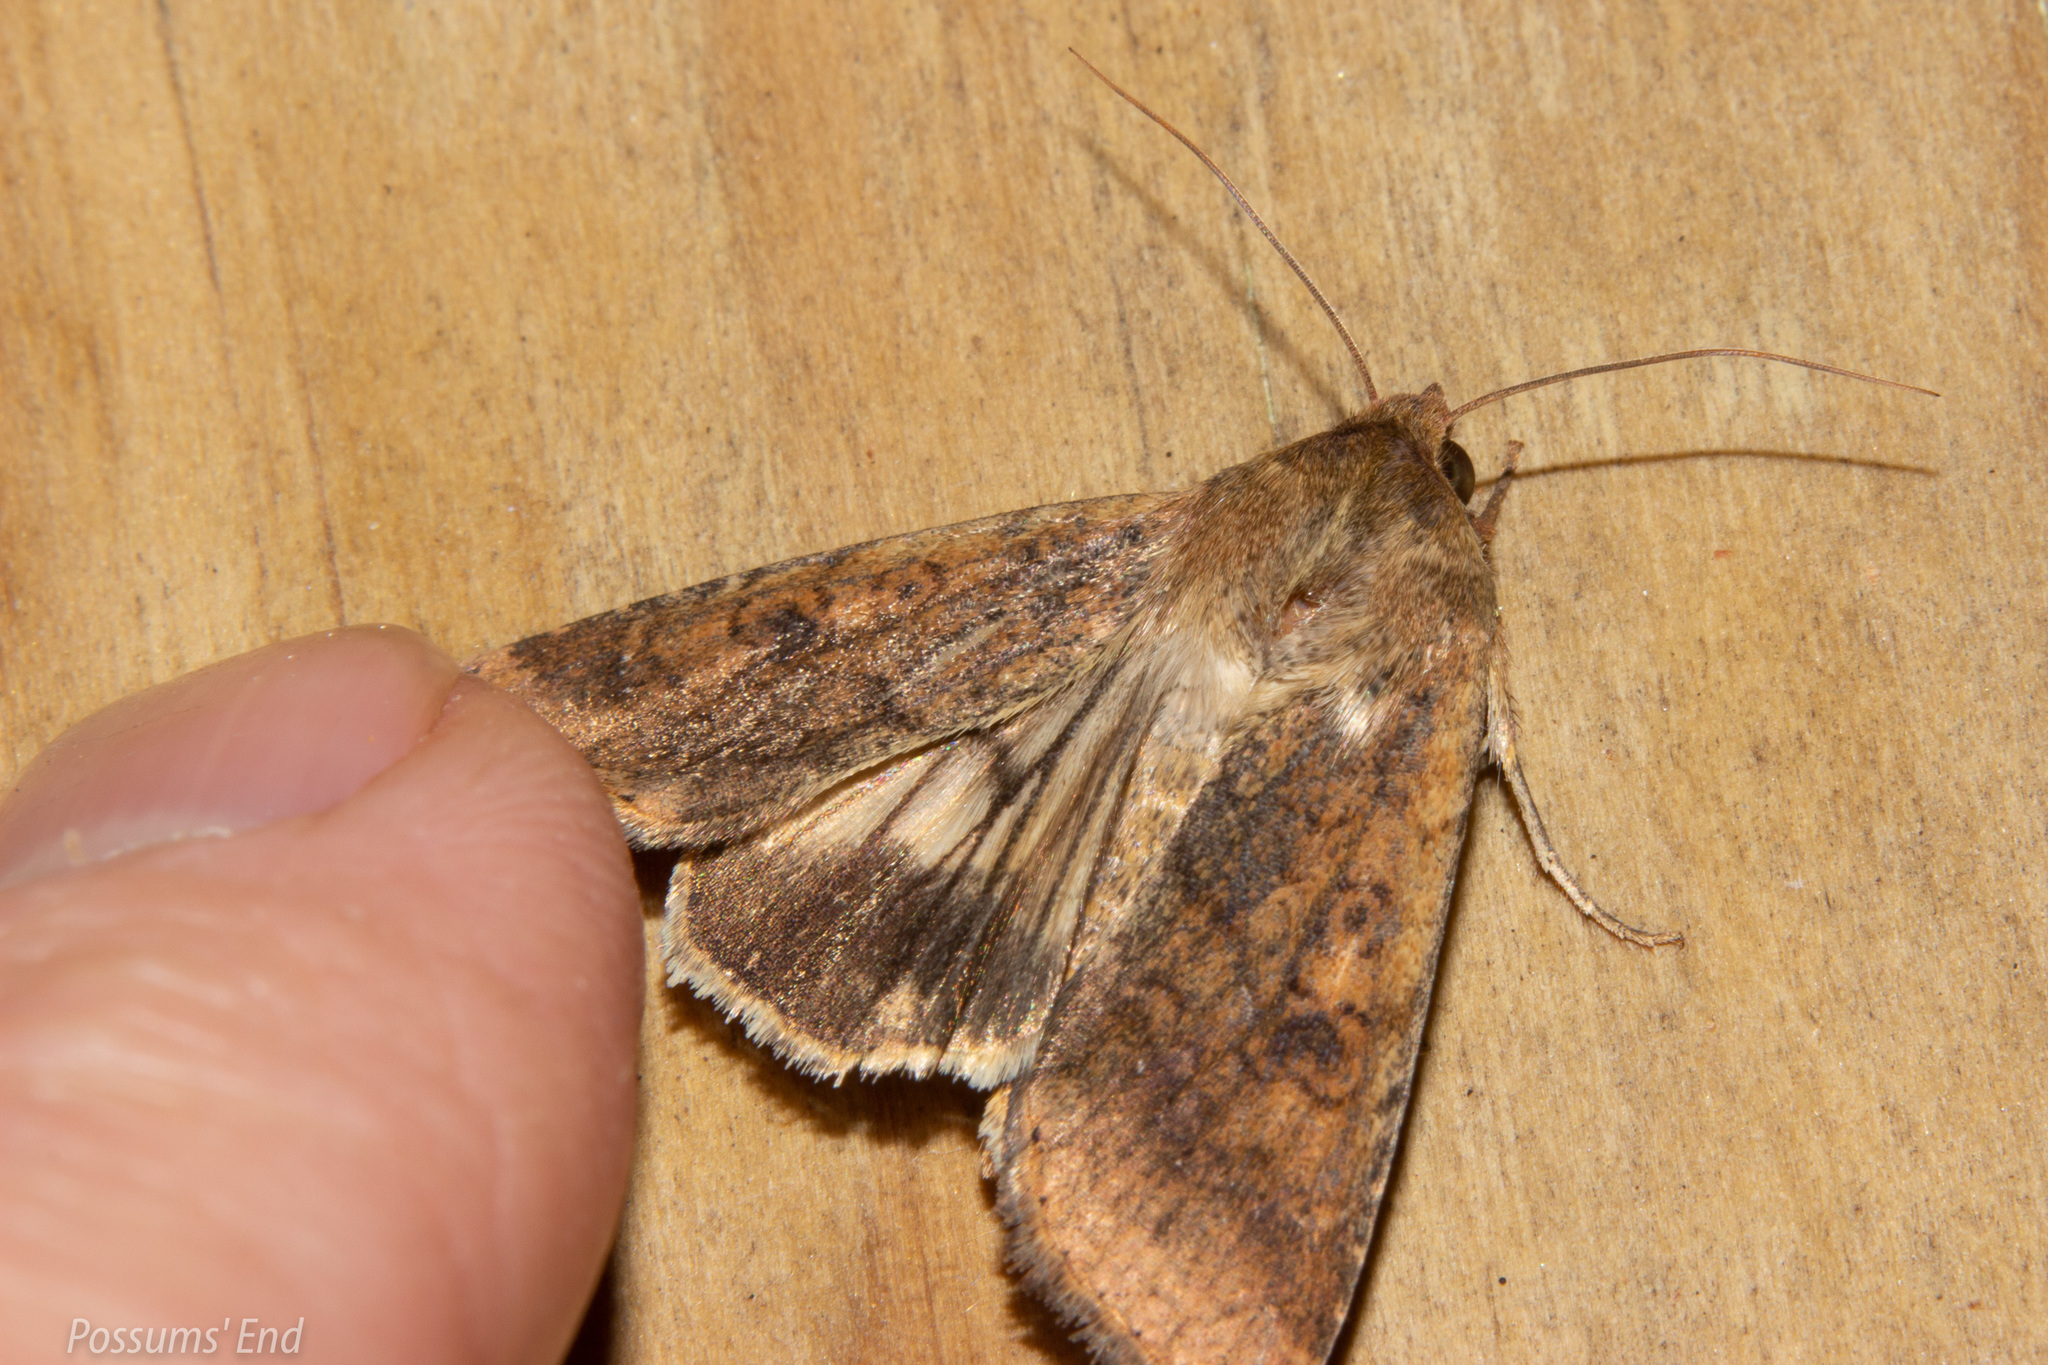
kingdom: Animalia
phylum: Arthropoda
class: Insecta
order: Lepidoptera
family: Noctuidae
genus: Helicoverpa
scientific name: Helicoverpa armigera
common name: Cotton bollworm
